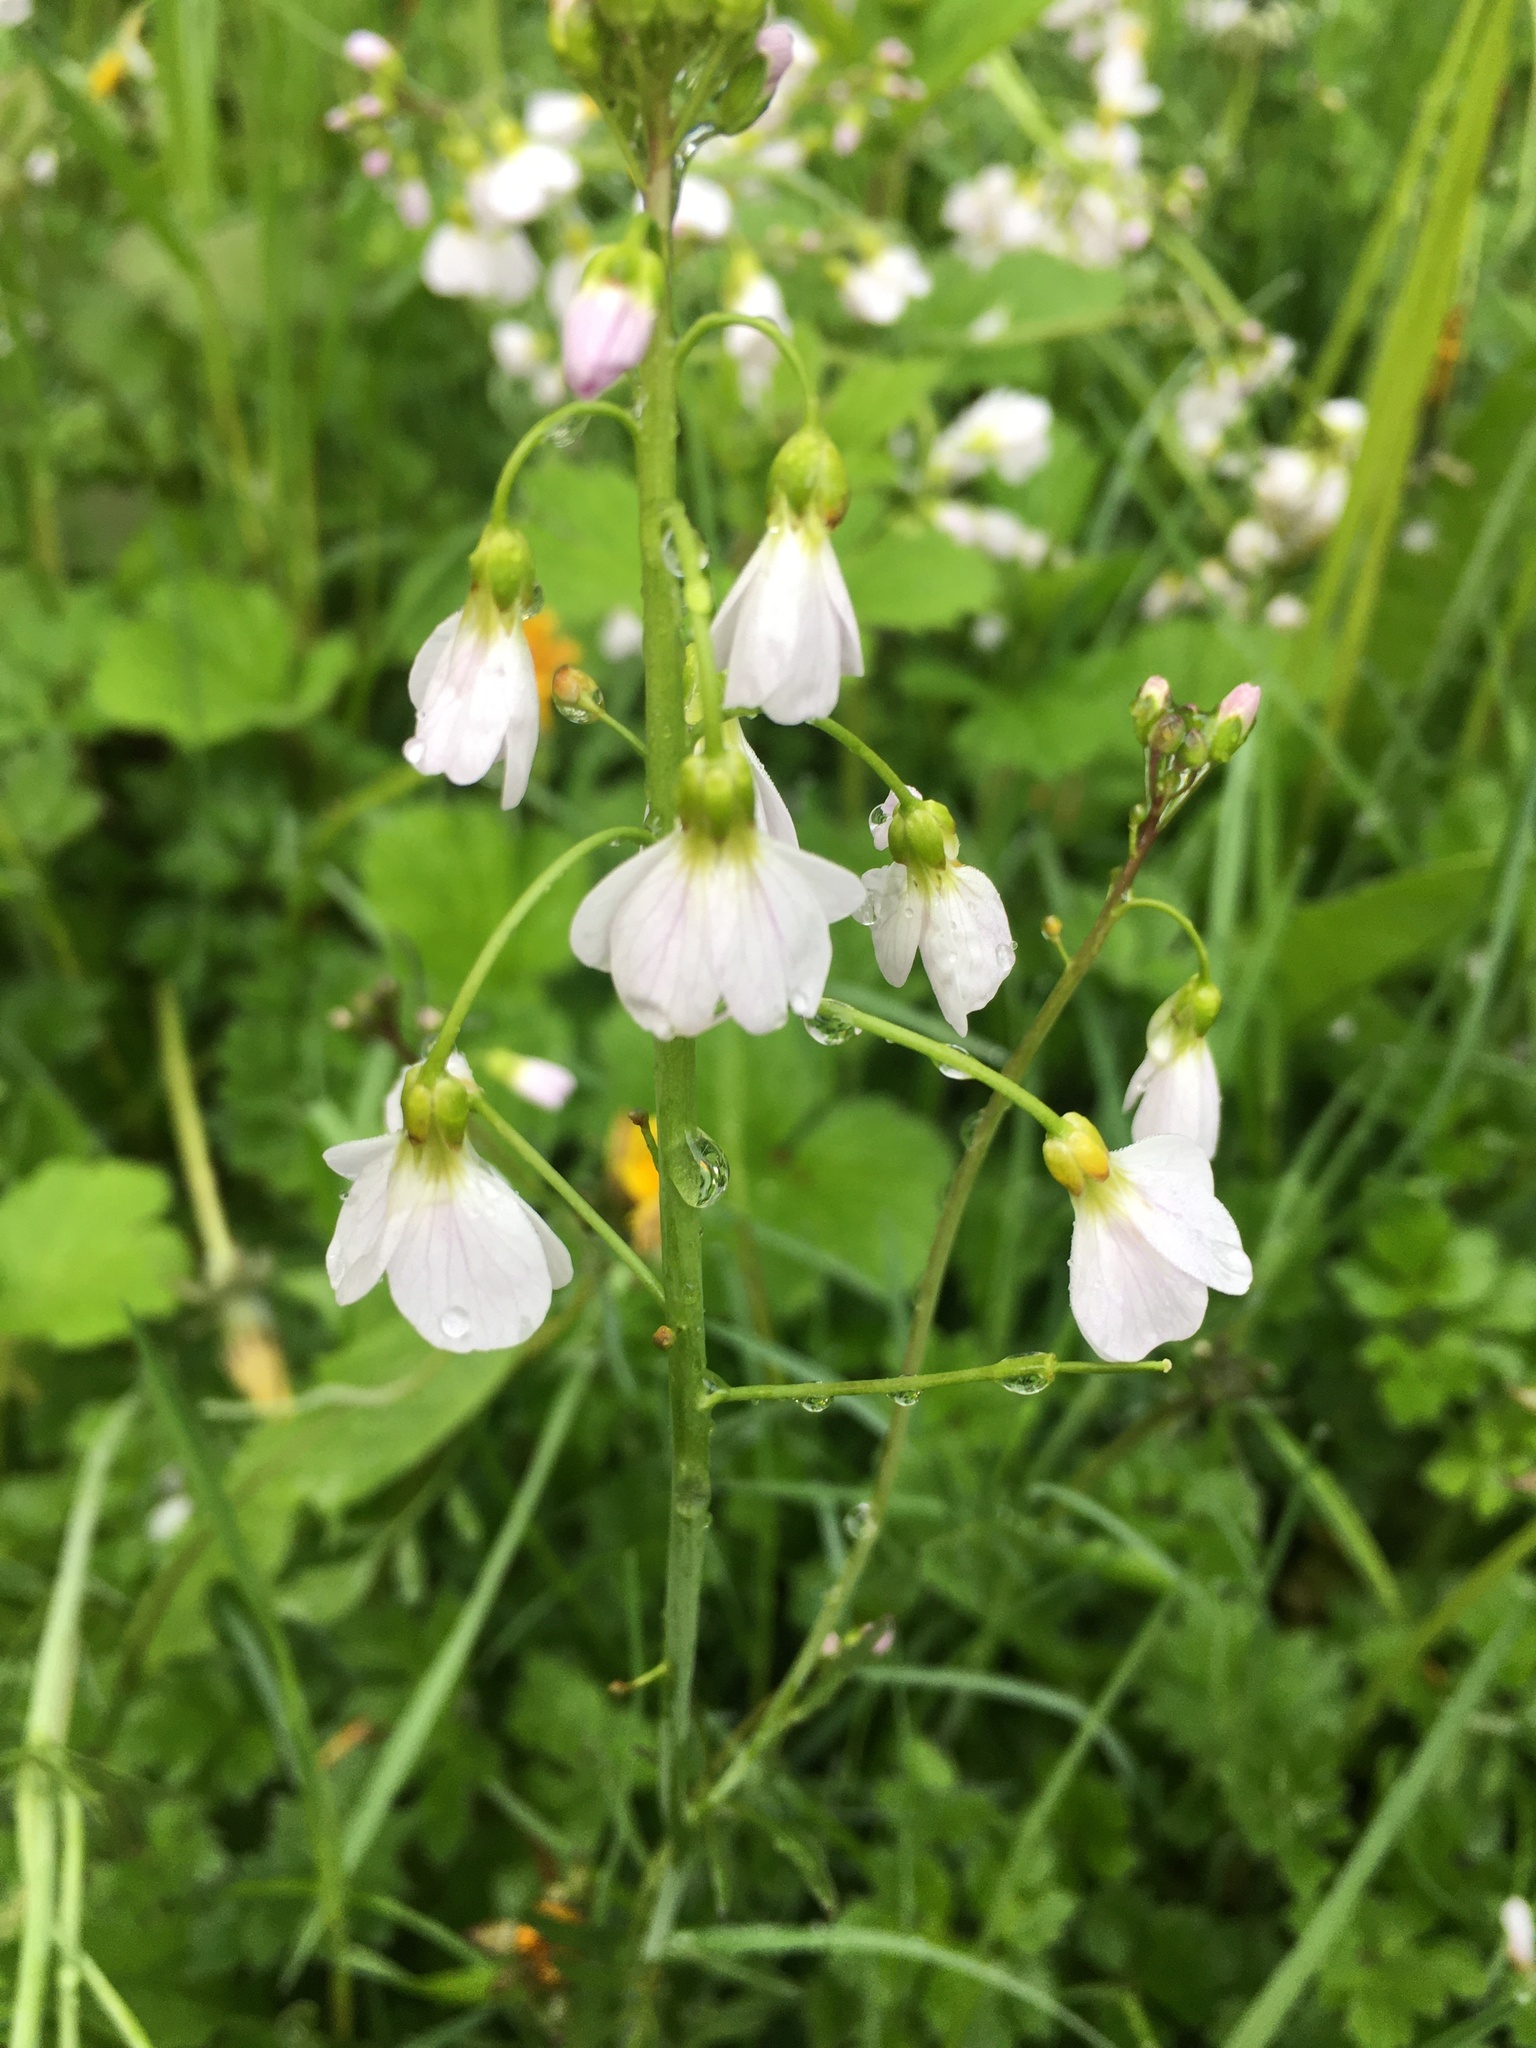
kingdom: Plantae
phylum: Tracheophyta
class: Magnoliopsida
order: Brassicales
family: Brassicaceae
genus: Cardamine
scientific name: Cardamine pratensis
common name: Cuckoo flower
